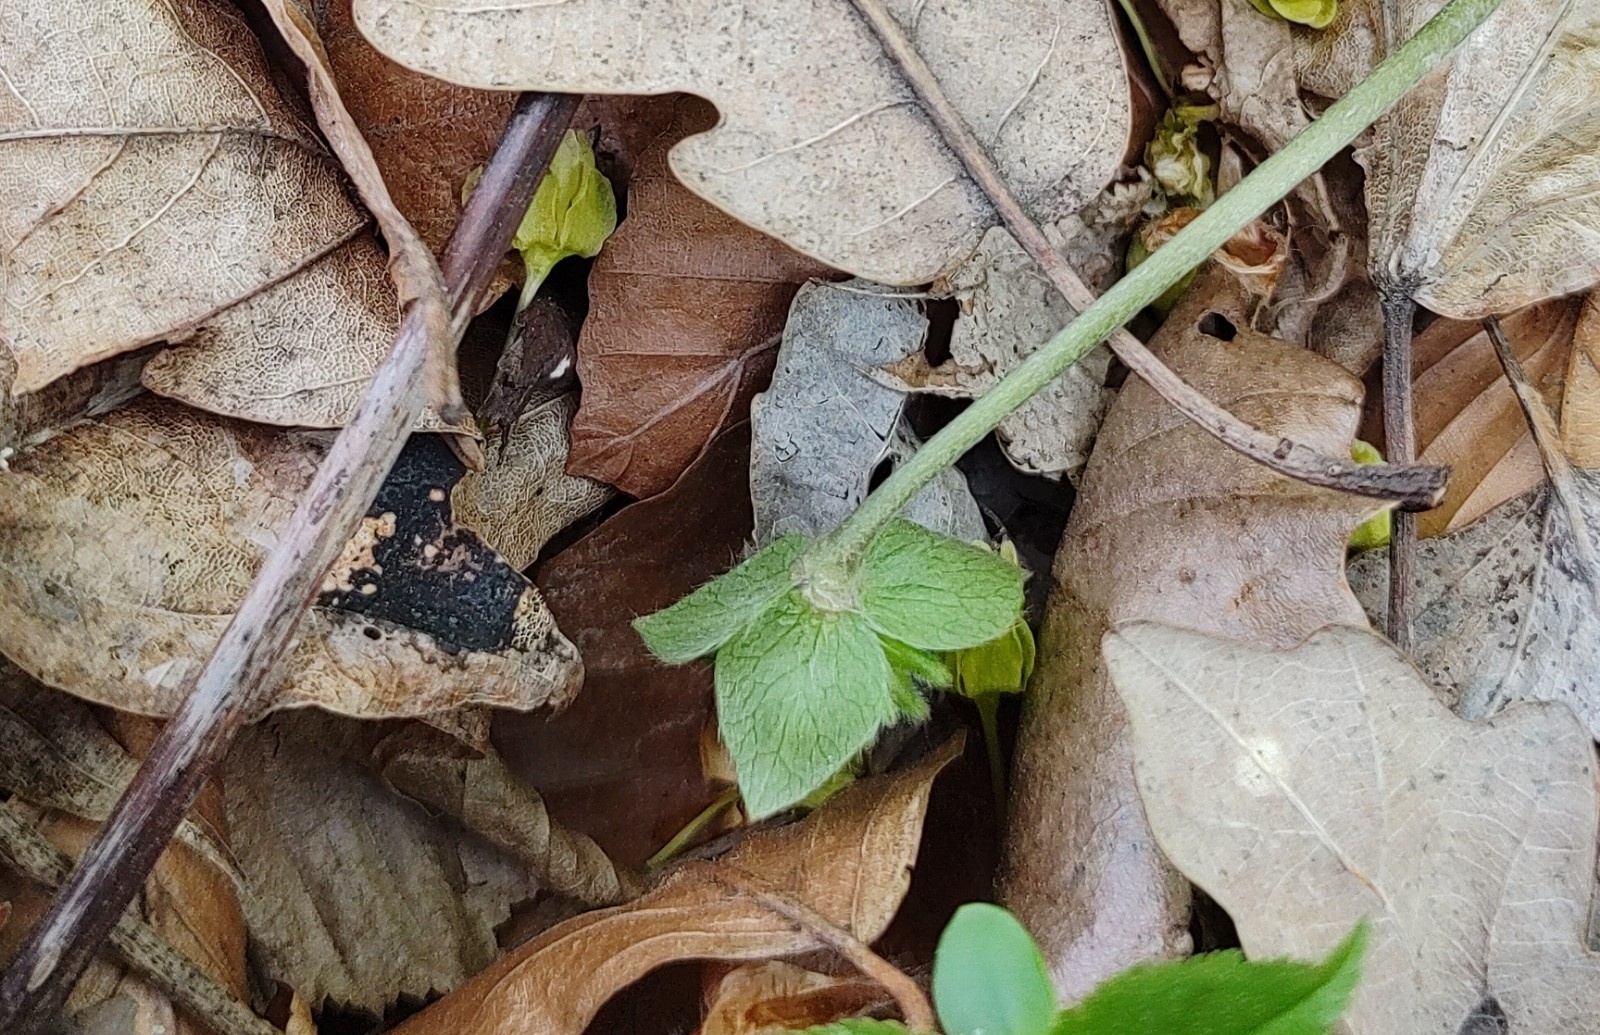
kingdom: Plantae
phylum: Tracheophyta
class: Magnoliopsida
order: Ranunculales
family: Ranunculaceae
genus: Hepatica
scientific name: Hepatica nobilis
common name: Liverleaf
